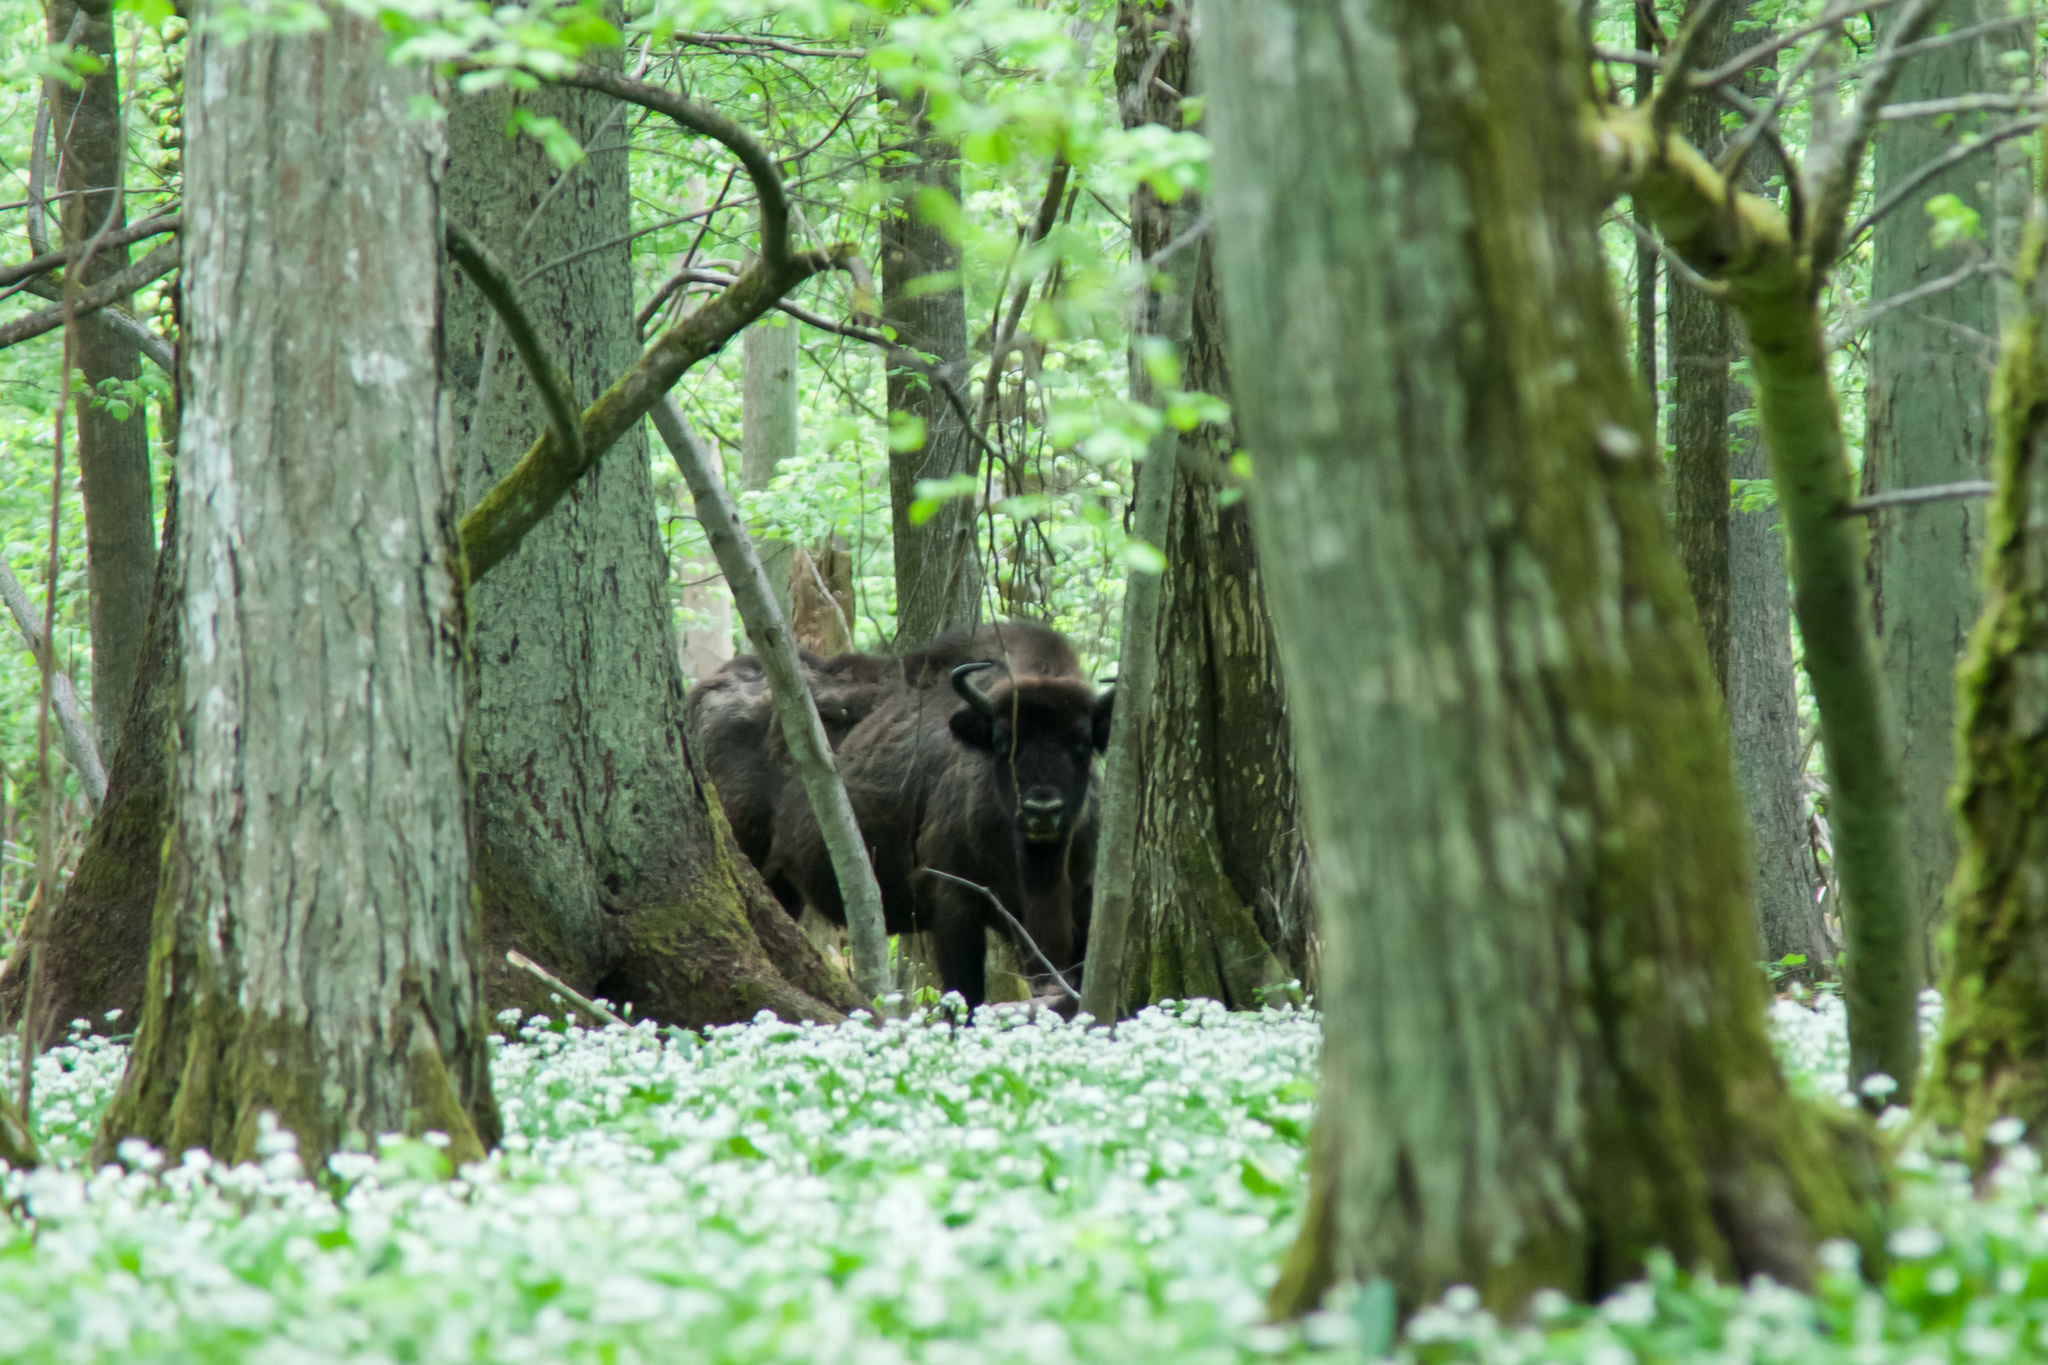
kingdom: Animalia
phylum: Chordata
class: Mammalia
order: Artiodactyla
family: Bovidae
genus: Bison
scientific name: Bison bonasus
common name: European bison
